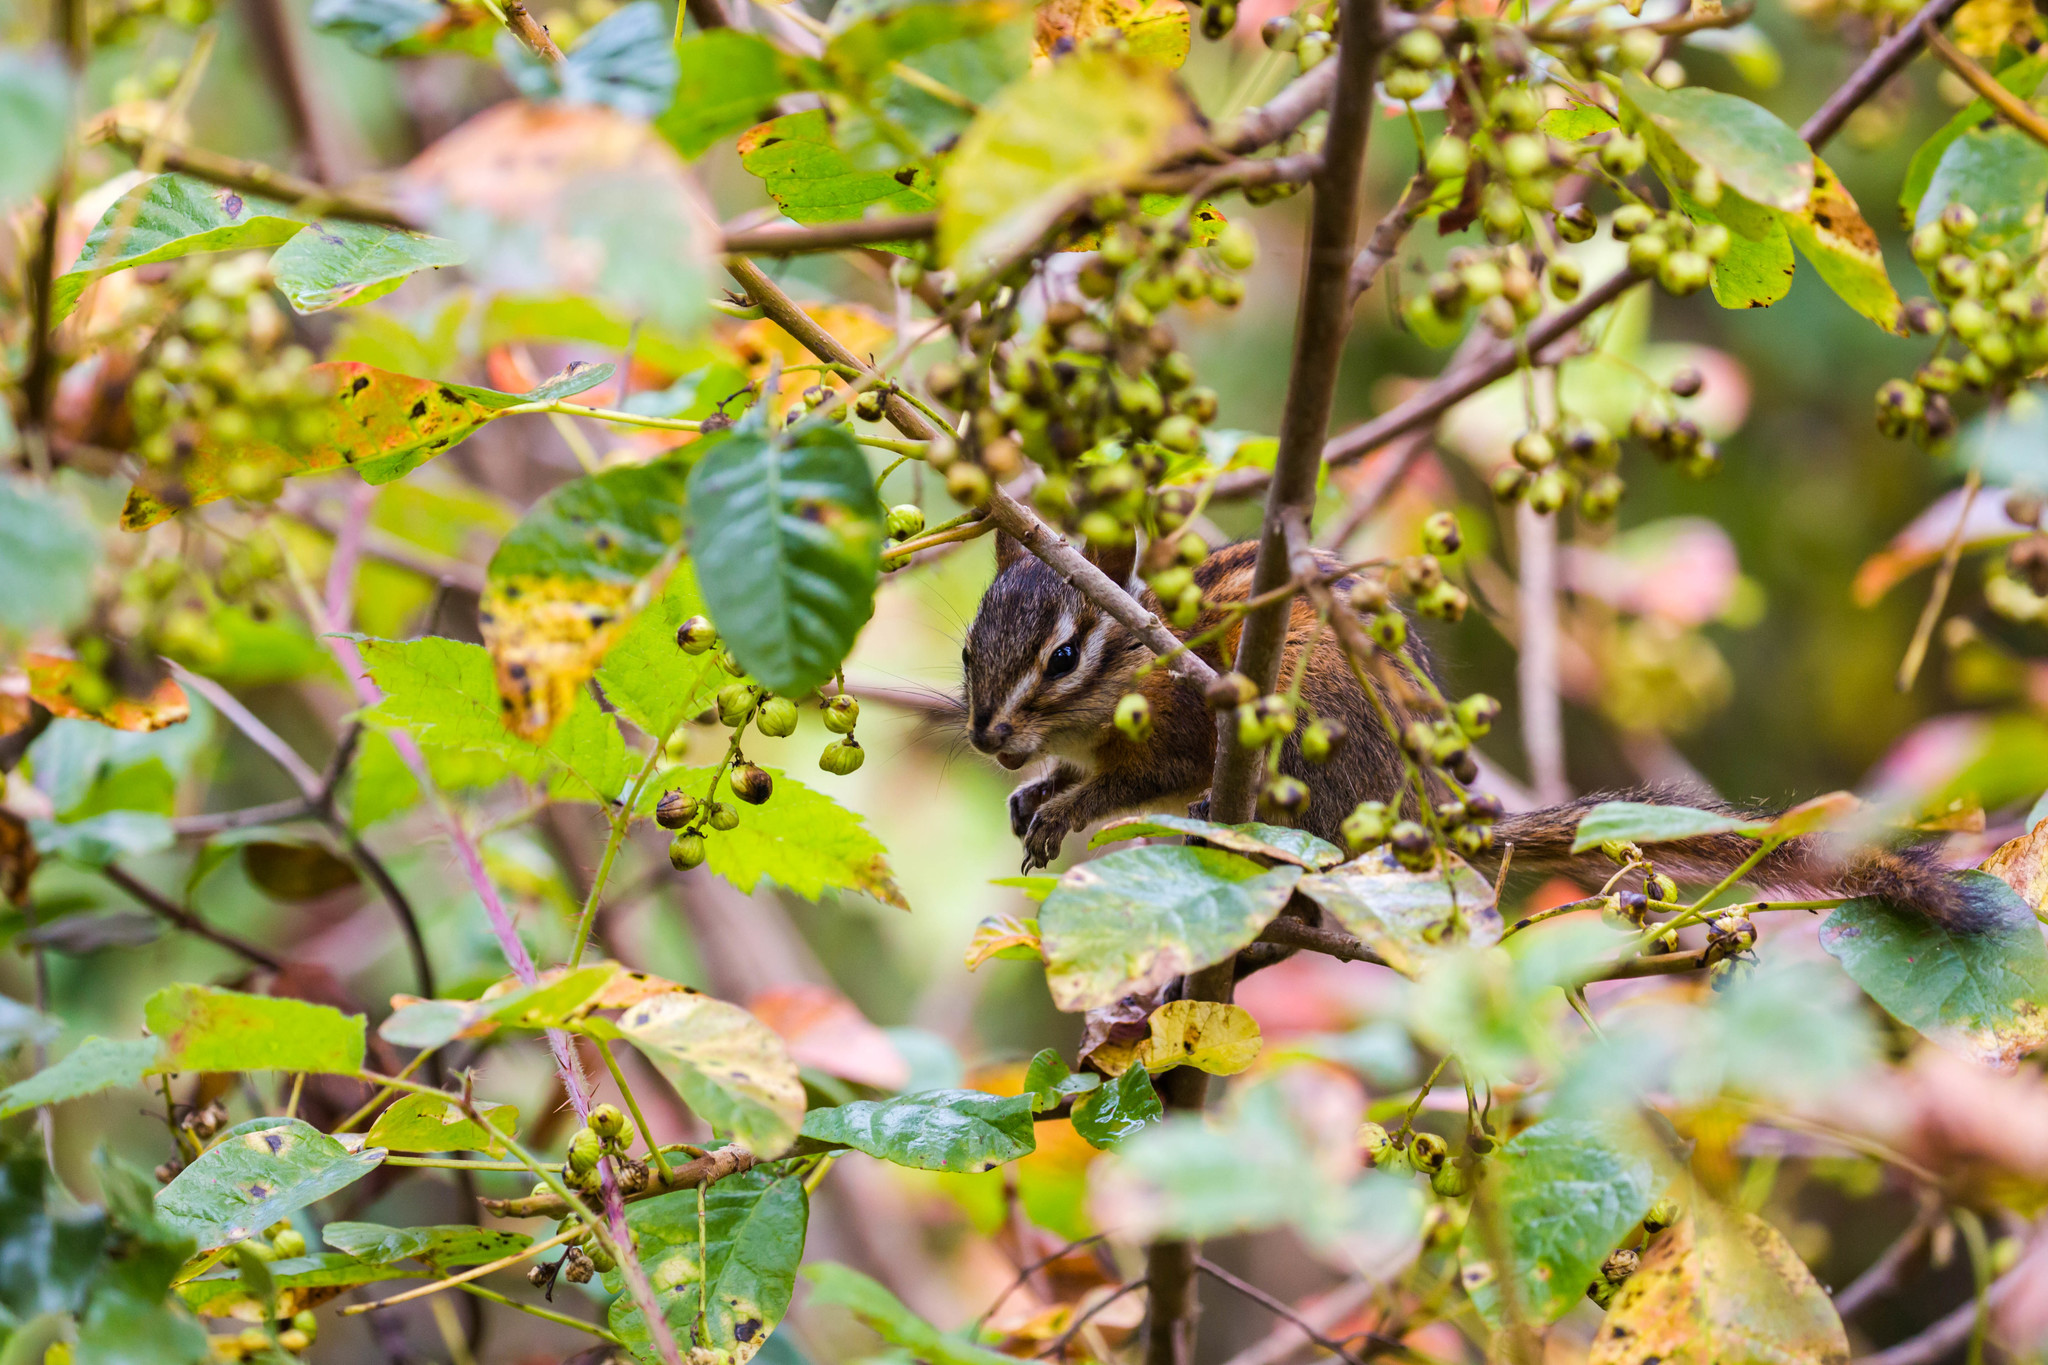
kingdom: Animalia
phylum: Chordata
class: Mammalia
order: Rodentia
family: Sciuridae
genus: Tamias
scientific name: Tamias sonomae
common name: Sonoma chipmunk
